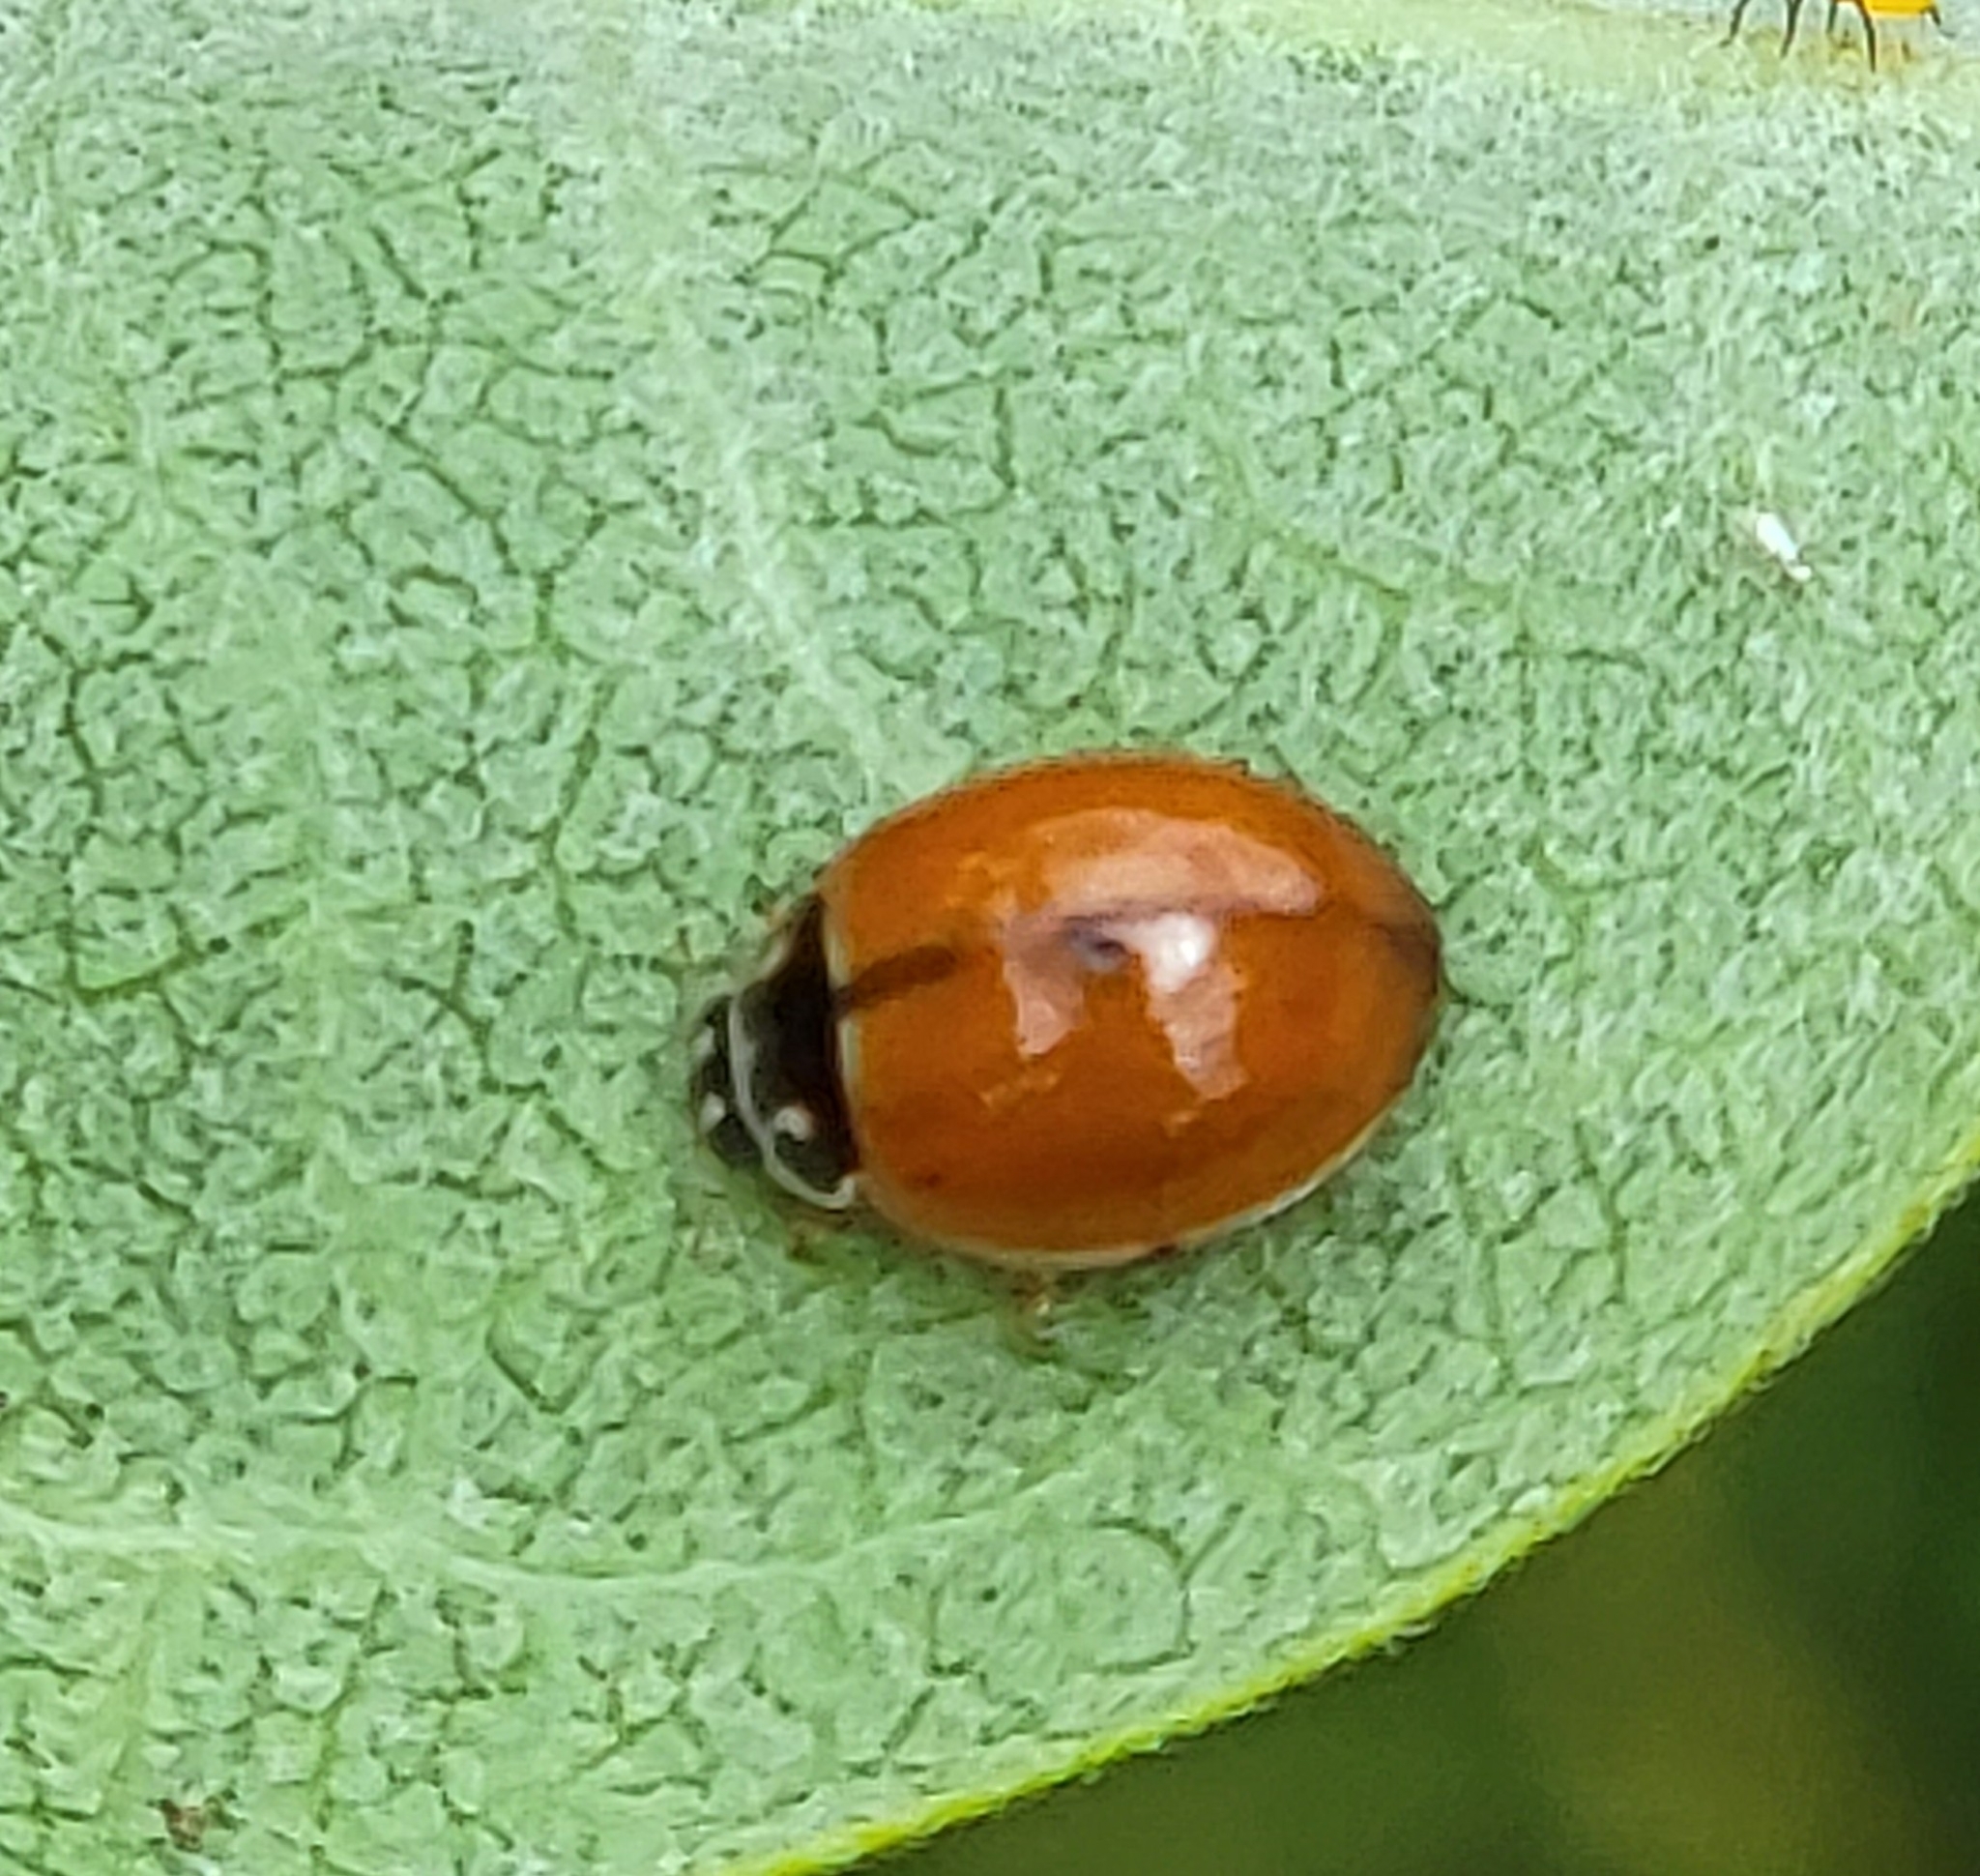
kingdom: Animalia
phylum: Arthropoda
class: Insecta
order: Coleoptera
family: Coccinellidae
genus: Cycloneda
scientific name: Cycloneda munda
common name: Polished lady beetle
